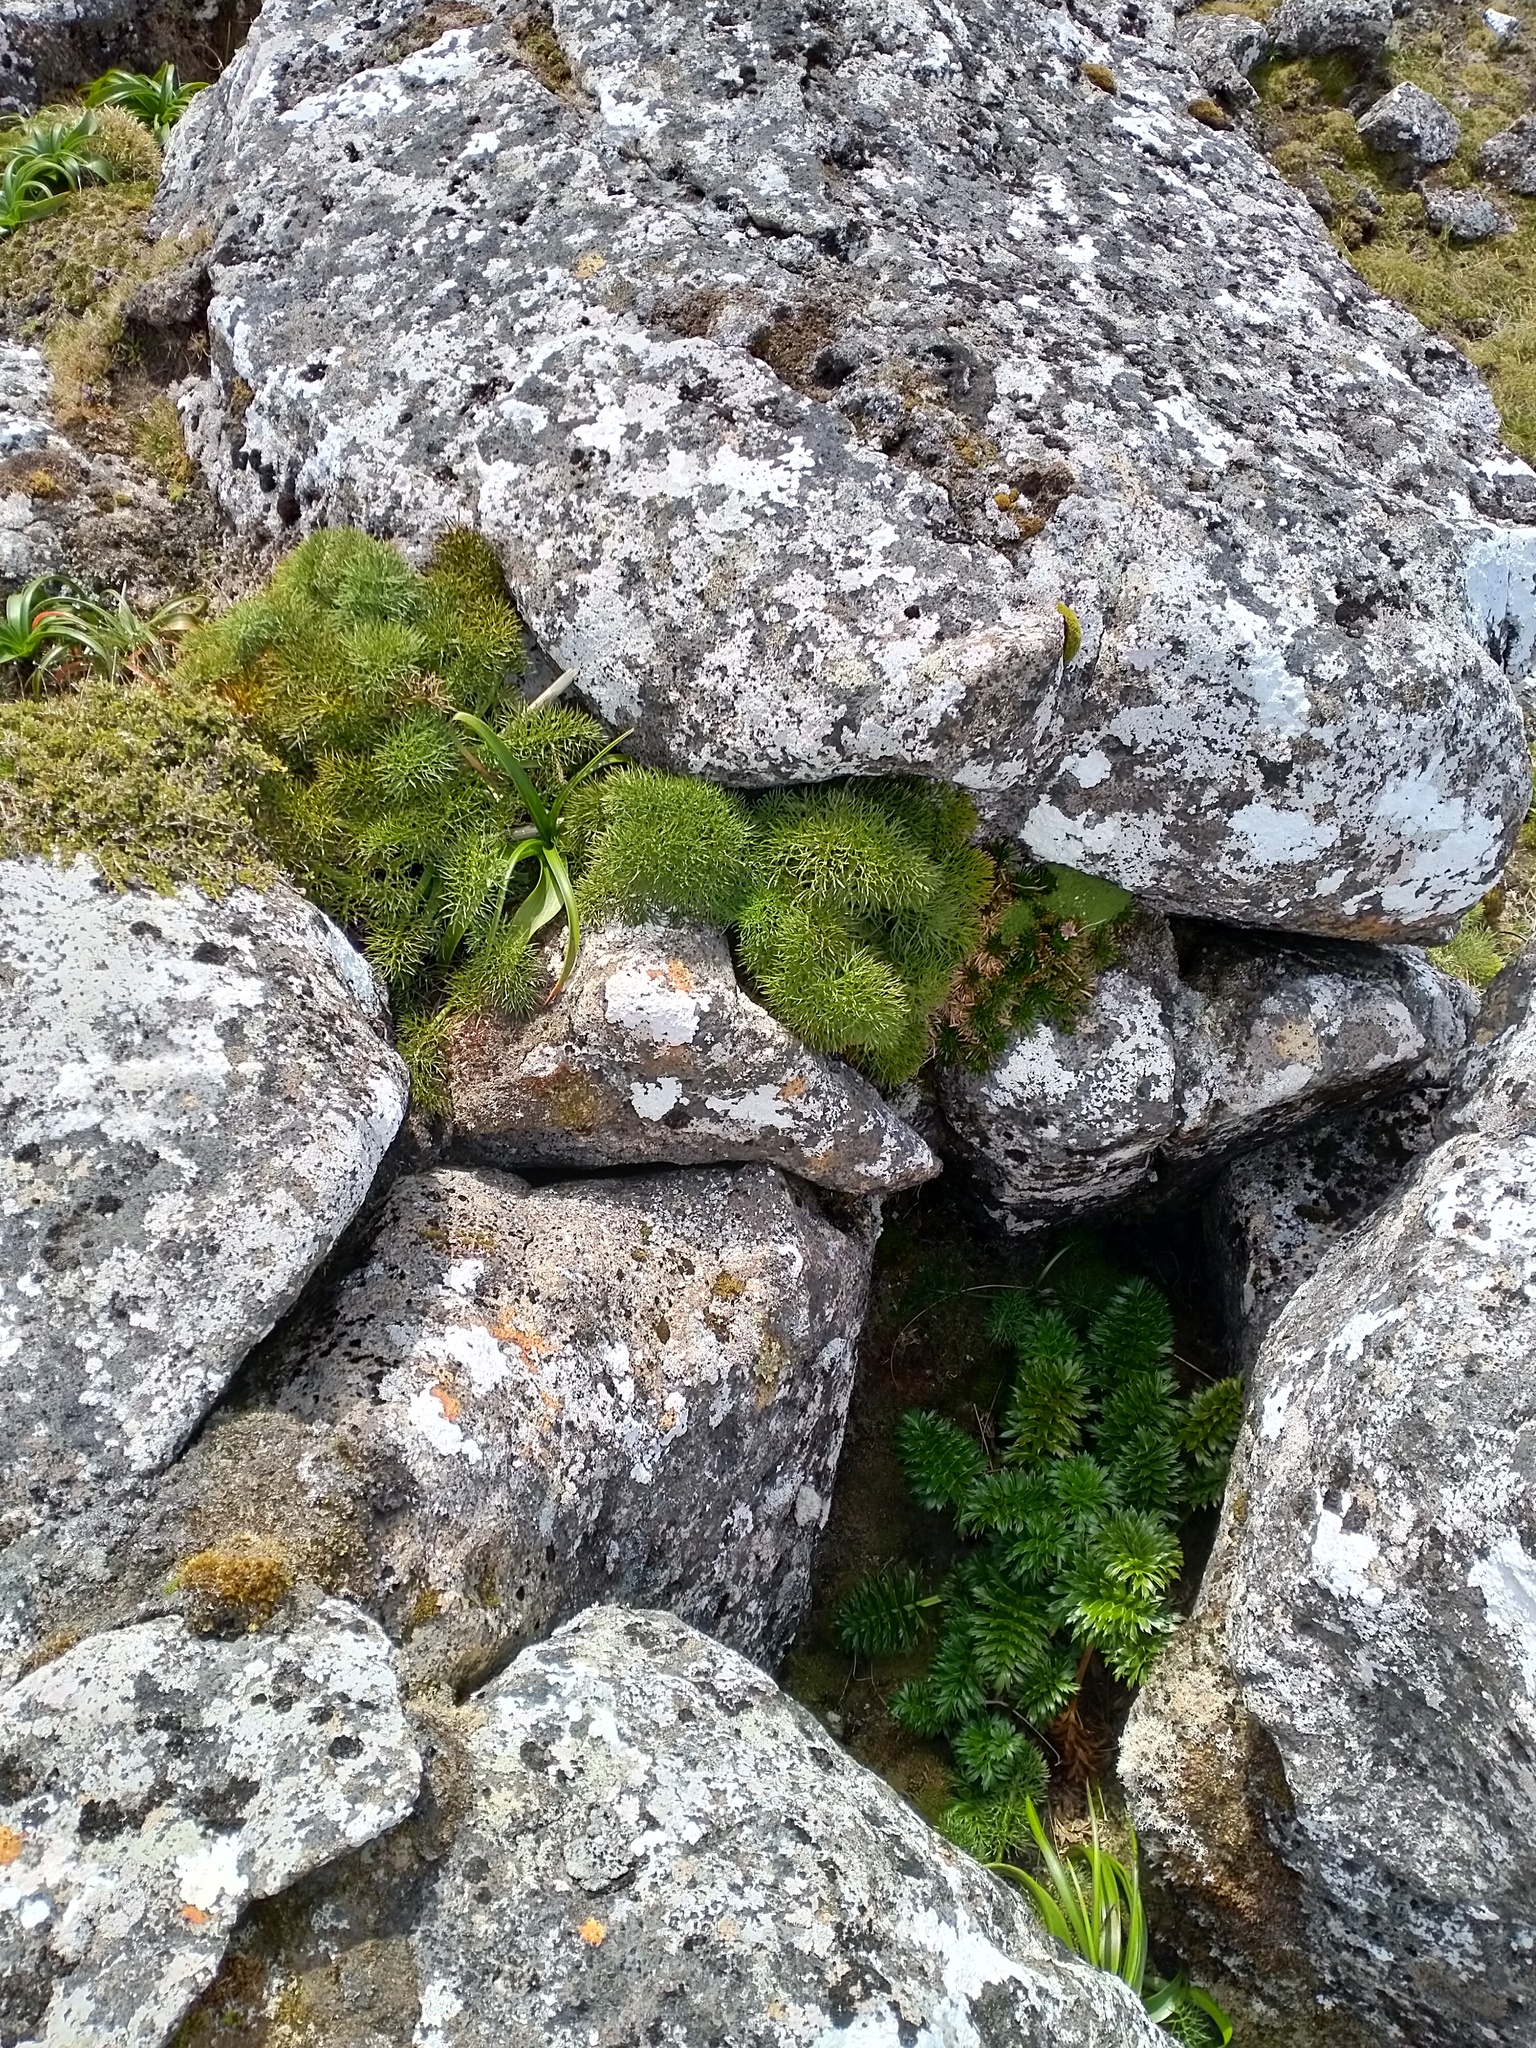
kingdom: Plantae
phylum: Tracheophyta
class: Magnoliopsida
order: Apiales
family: Apiaceae
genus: Anisotome
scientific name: Anisotome antipoda
